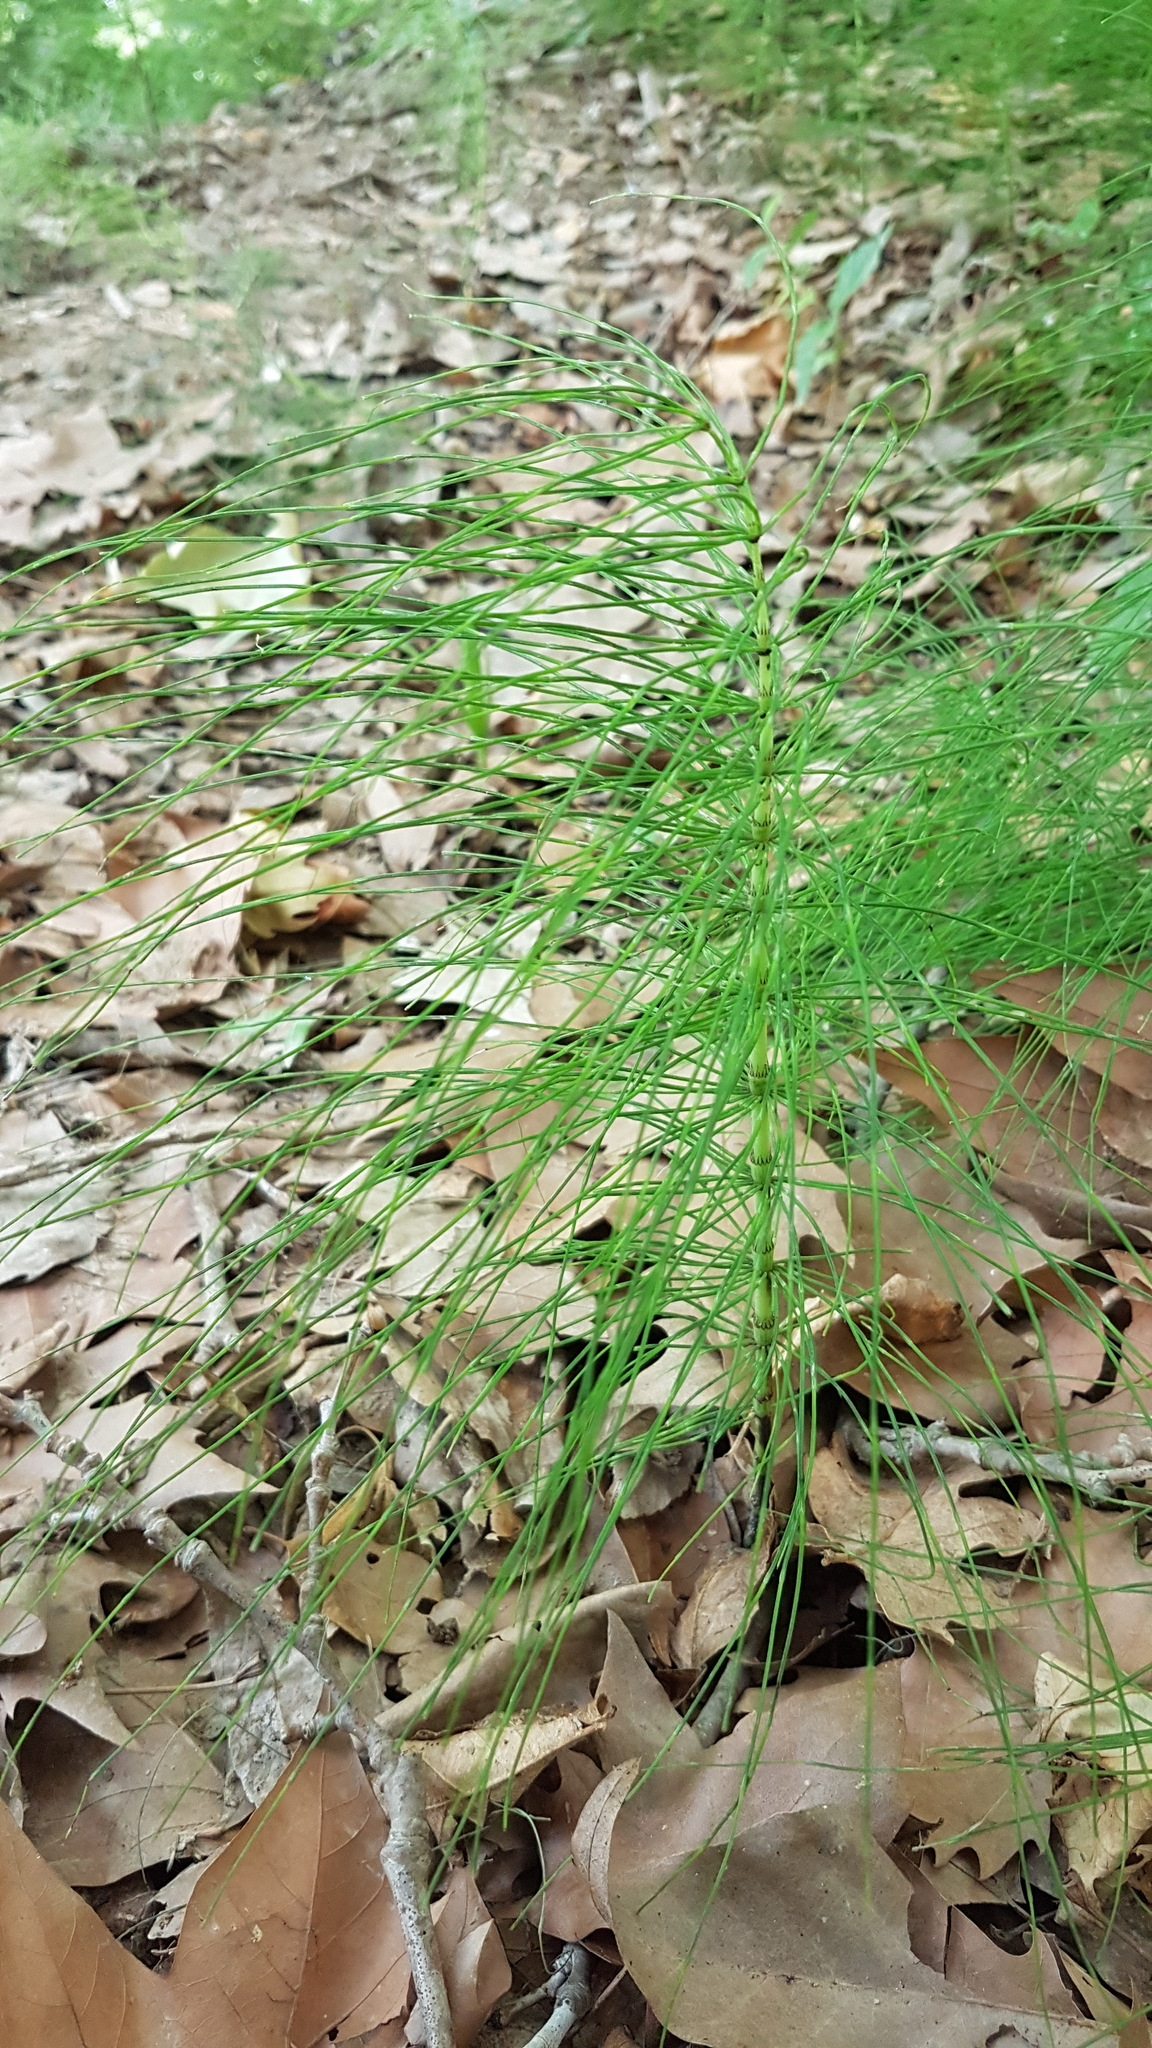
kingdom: Plantae
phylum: Tracheophyta
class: Polypodiopsida
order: Equisetales
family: Equisetaceae
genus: Equisetum
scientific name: Equisetum telmateia
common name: Great horsetail
